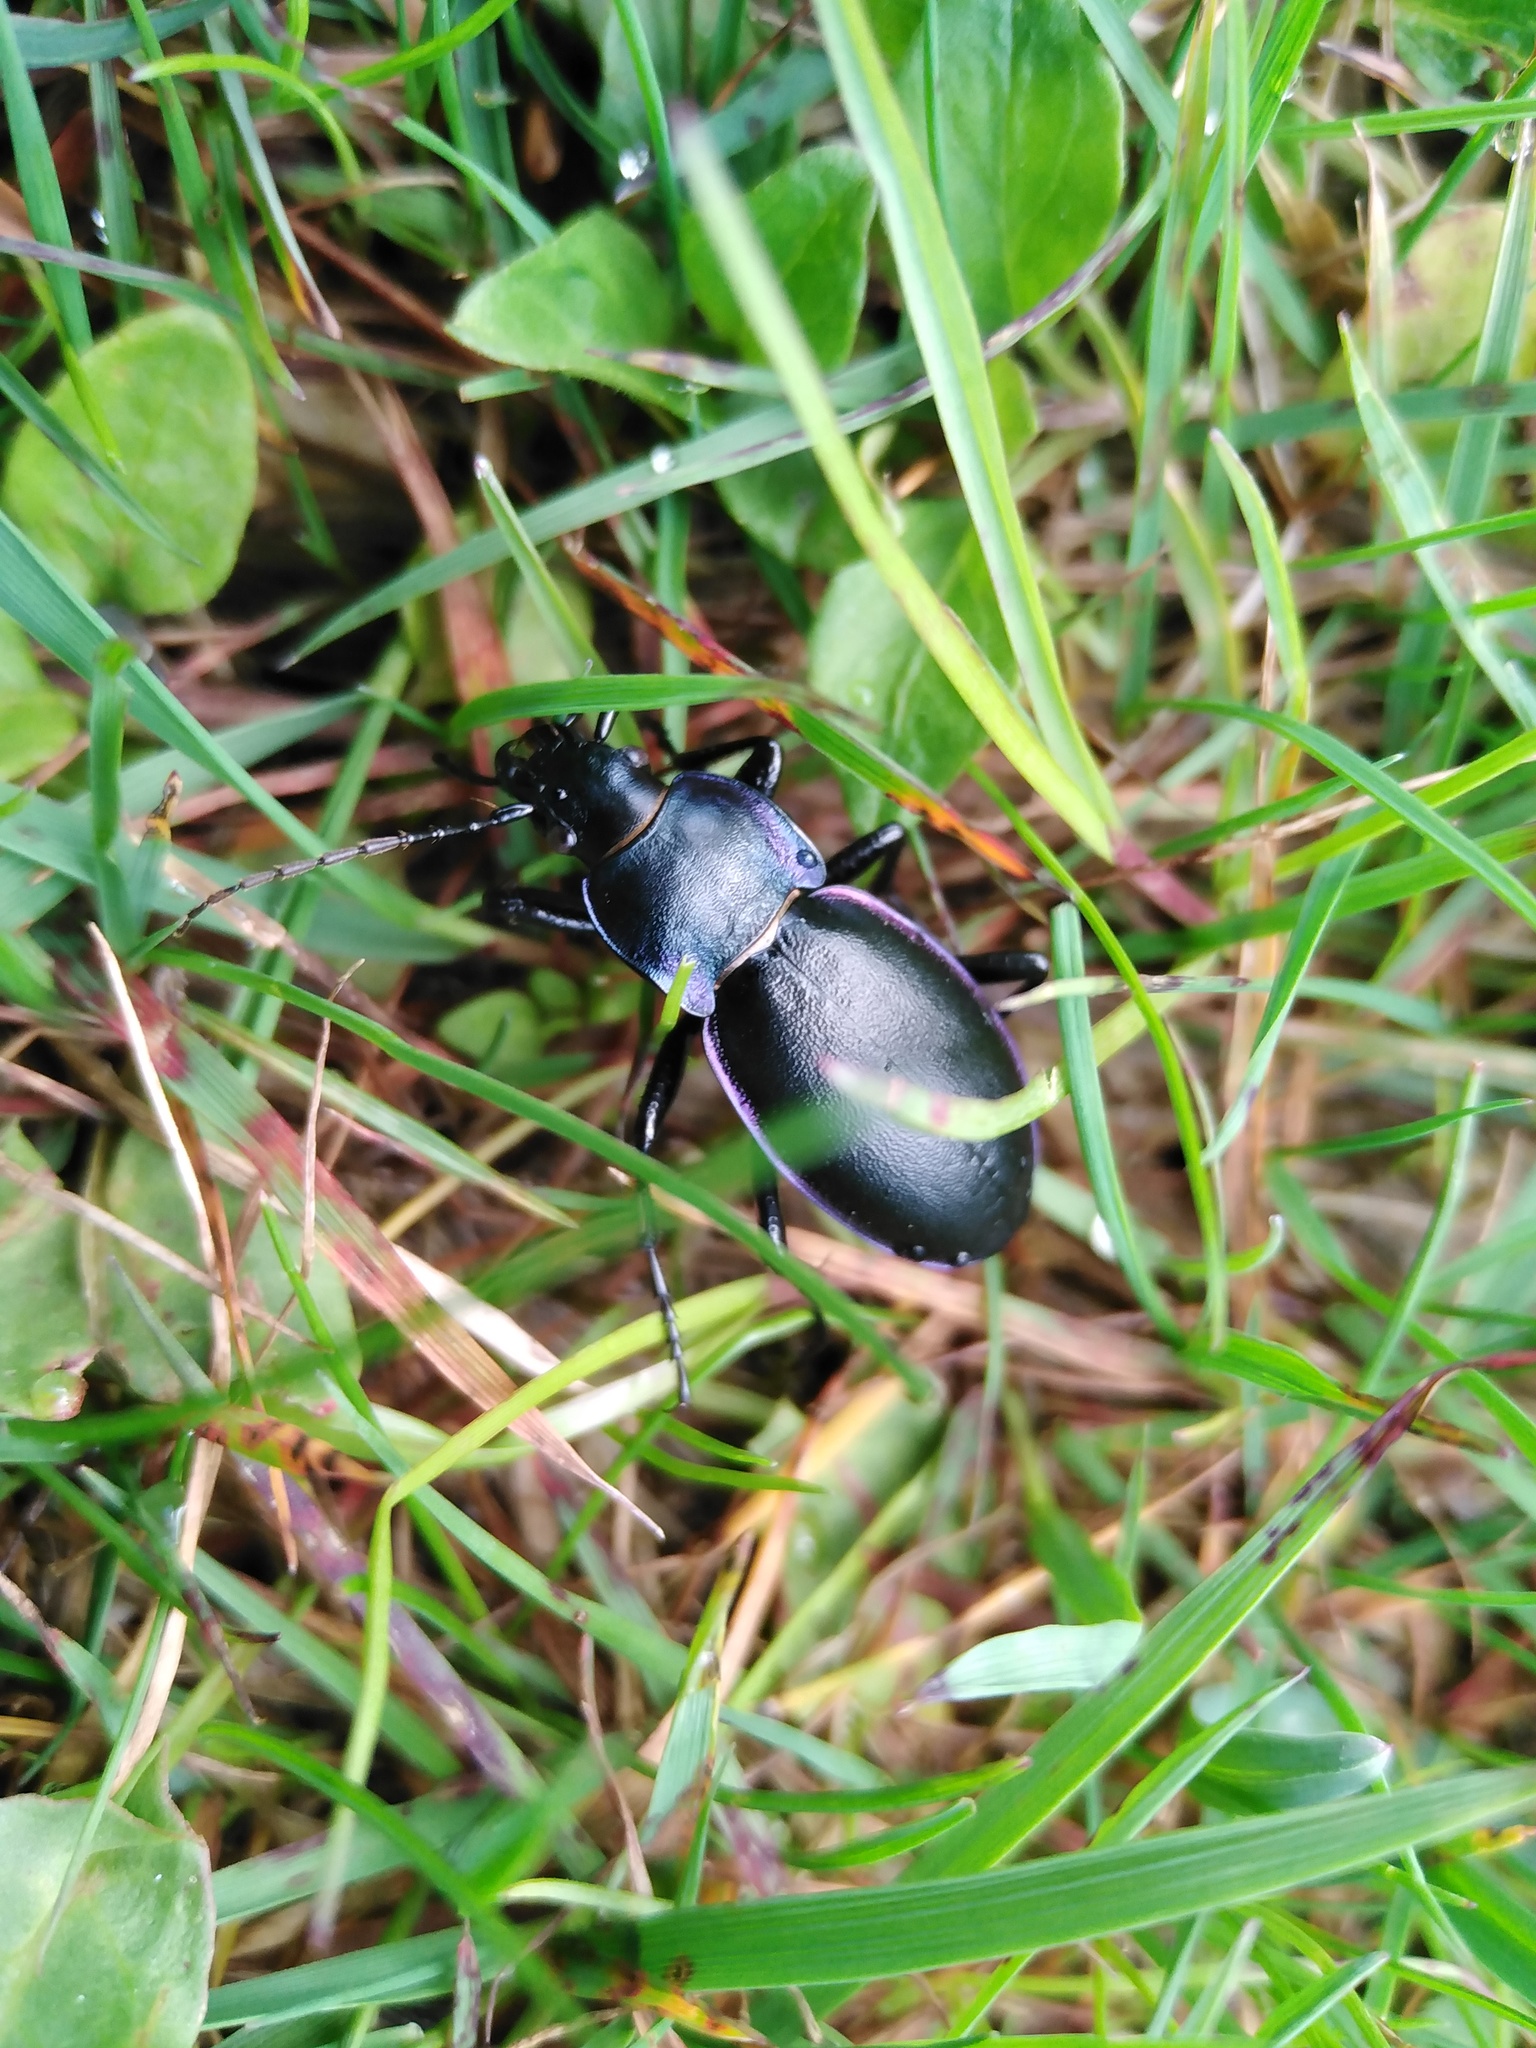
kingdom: Animalia
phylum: Arthropoda
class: Insecta
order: Coleoptera
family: Carabidae
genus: Carabus
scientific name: Carabus violaceus
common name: Violet ground beetle
